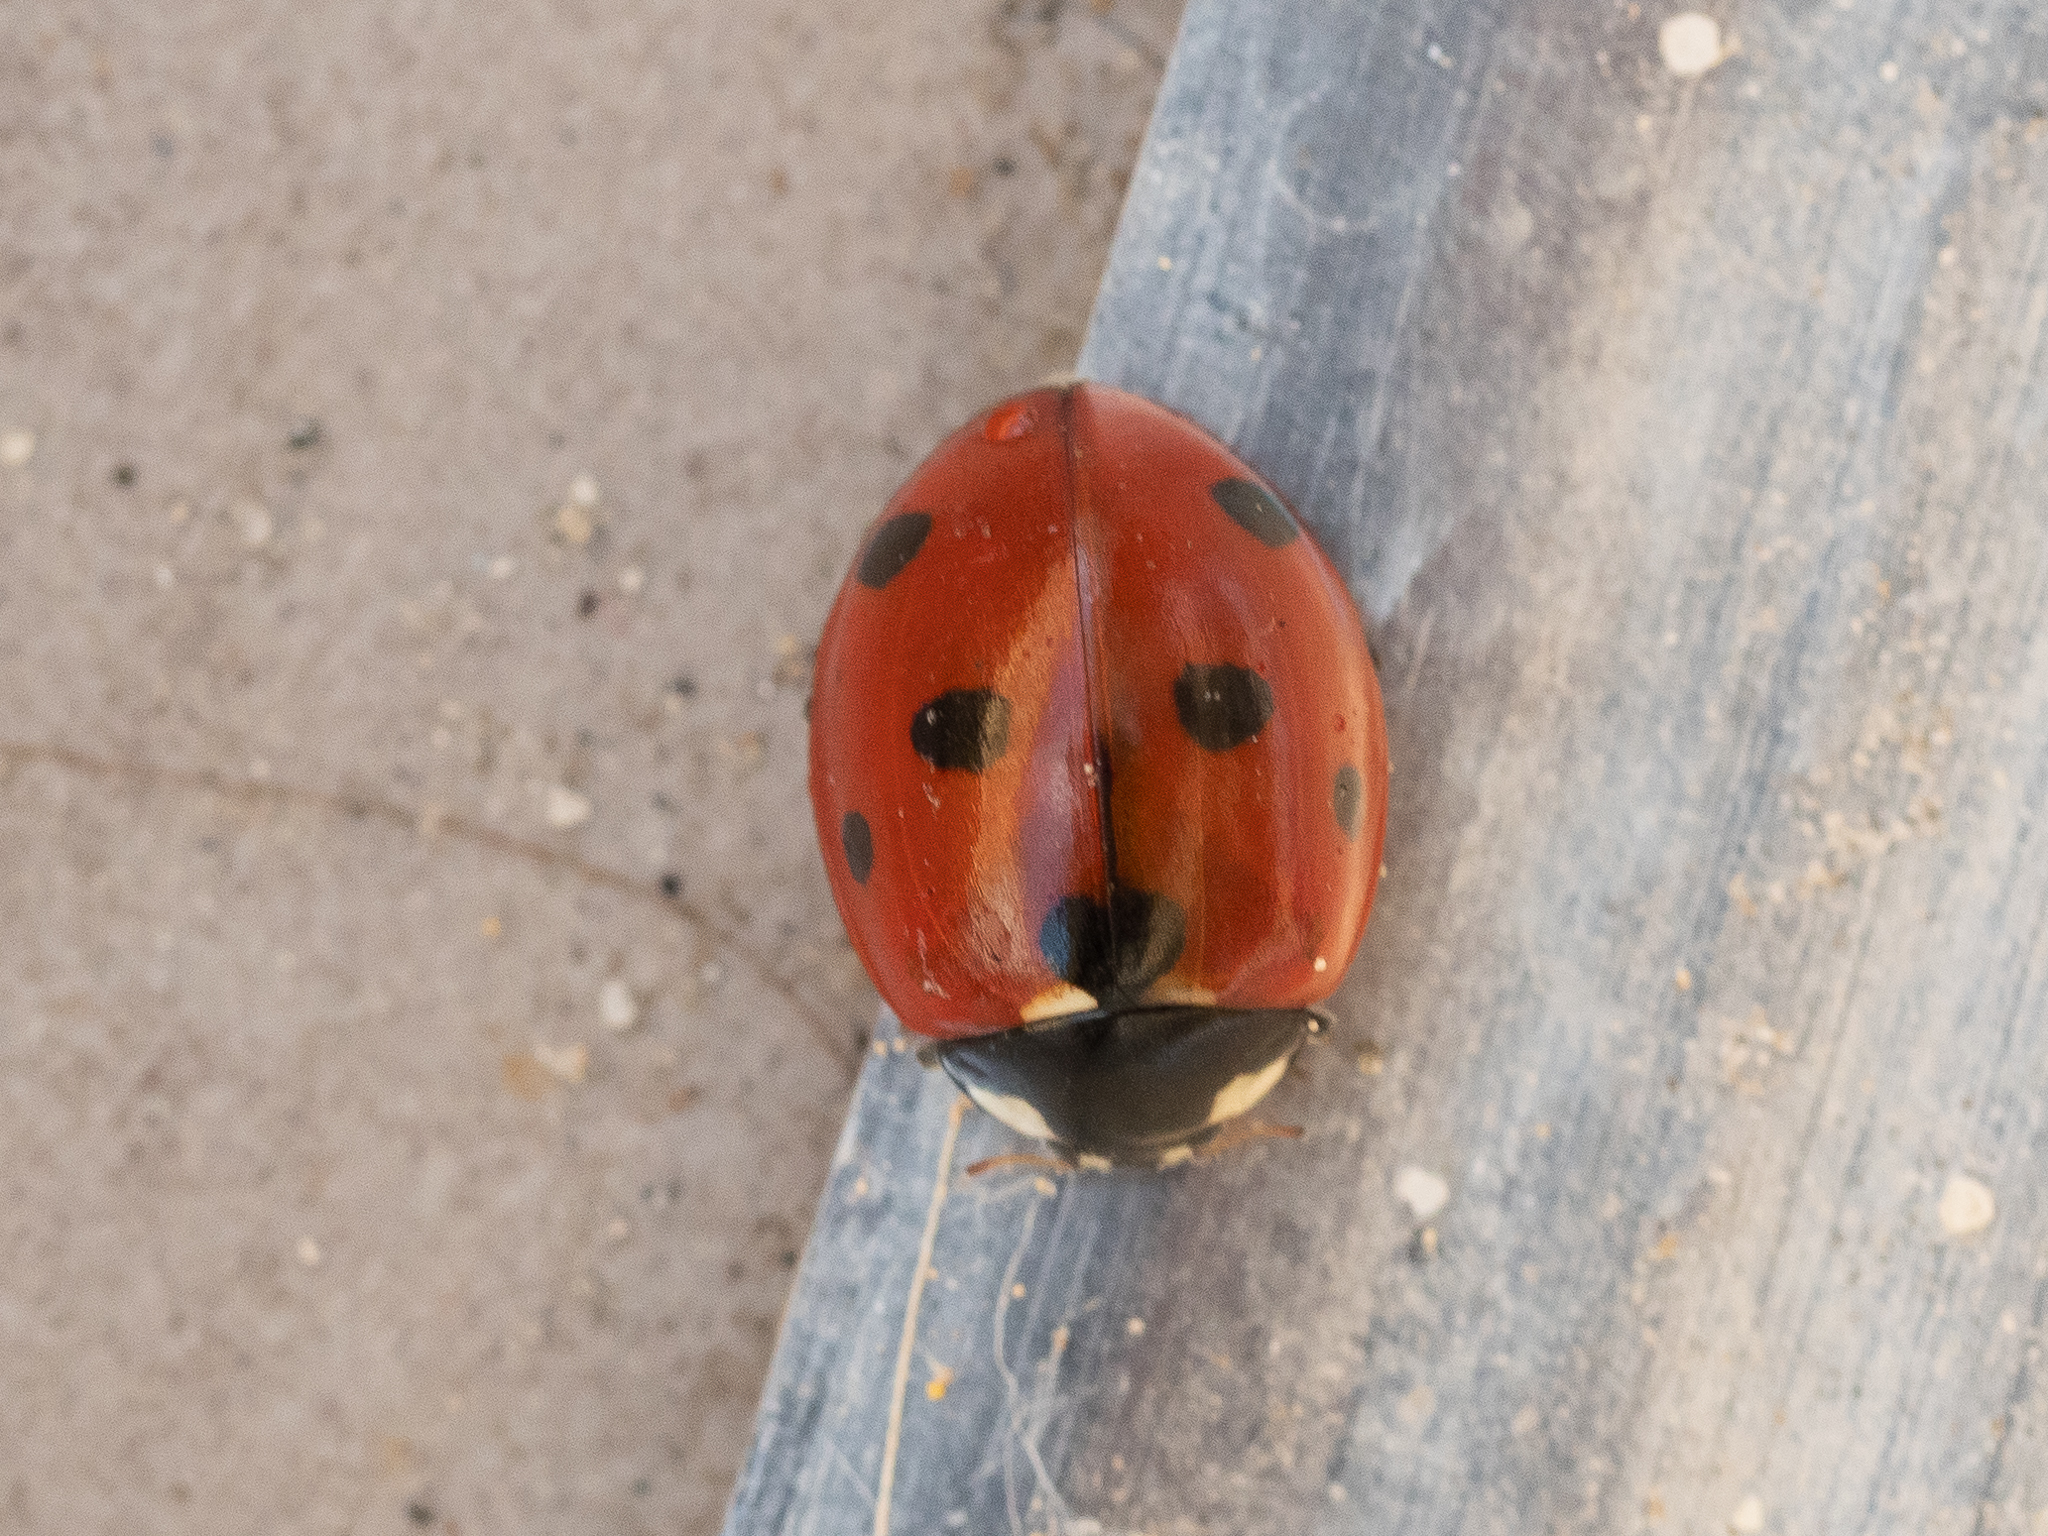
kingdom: Animalia
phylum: Arthropoda
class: Insecta
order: Coleoptera
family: Coccinellidae
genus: Coccinella
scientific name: Coccinella septempunctata
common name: Sevenspotted lady beetle
